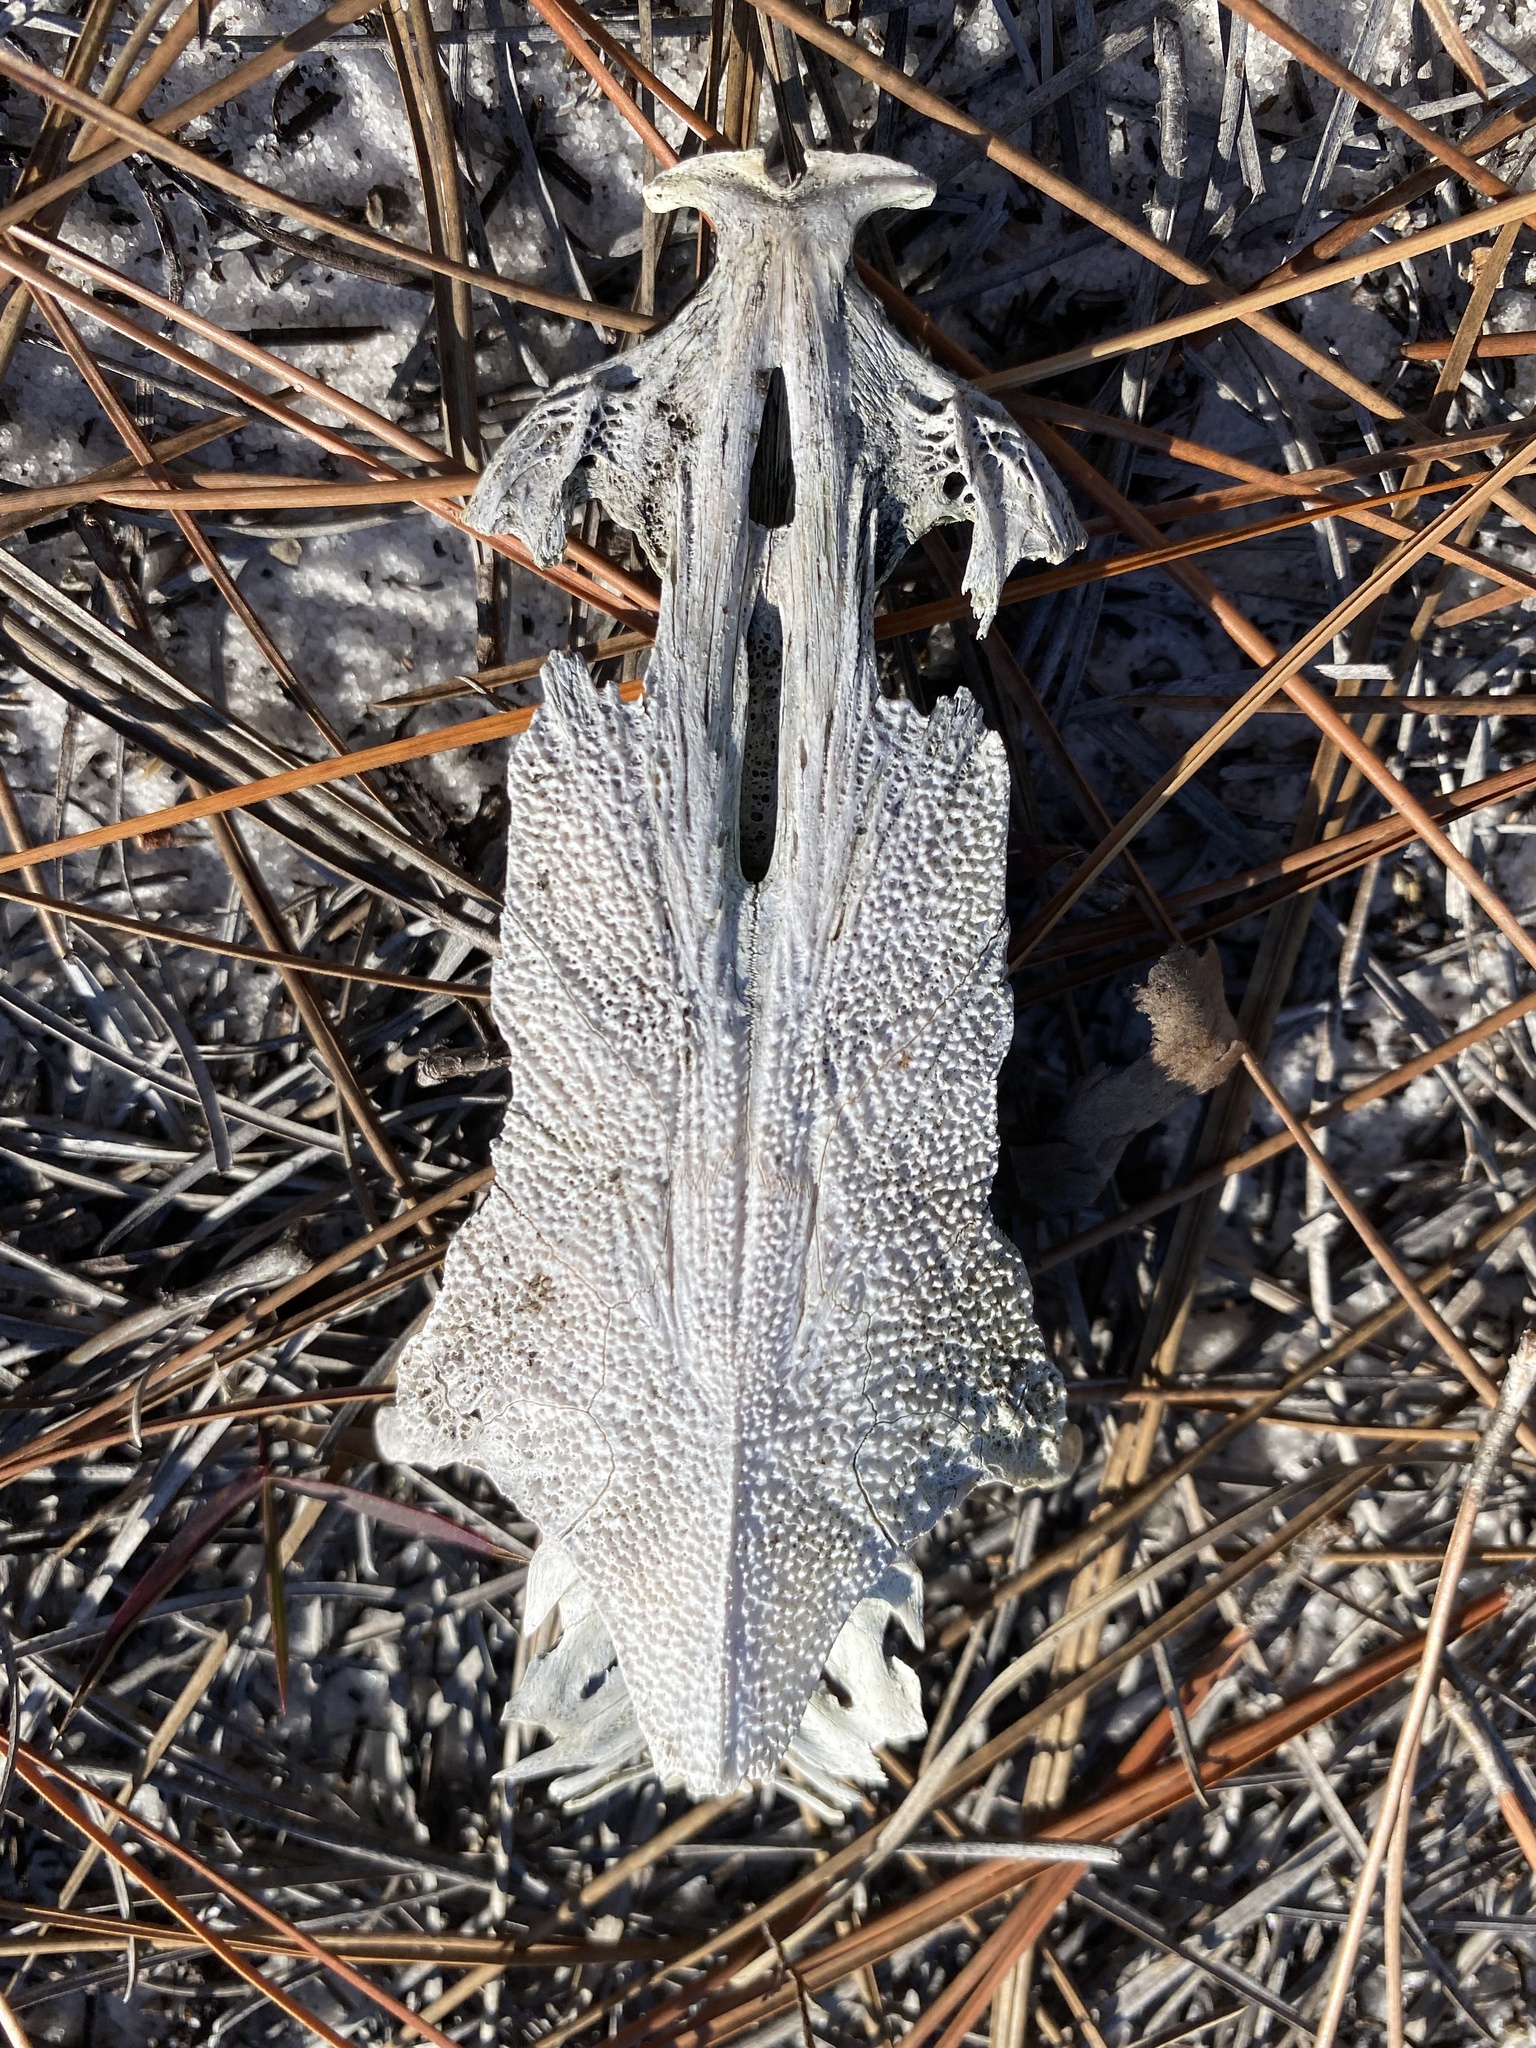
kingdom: Animalia
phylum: Chordata
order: Siluriformes
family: Ariidae
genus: Ariopsis
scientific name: Ariopsis felis
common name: Hardhead catfish
